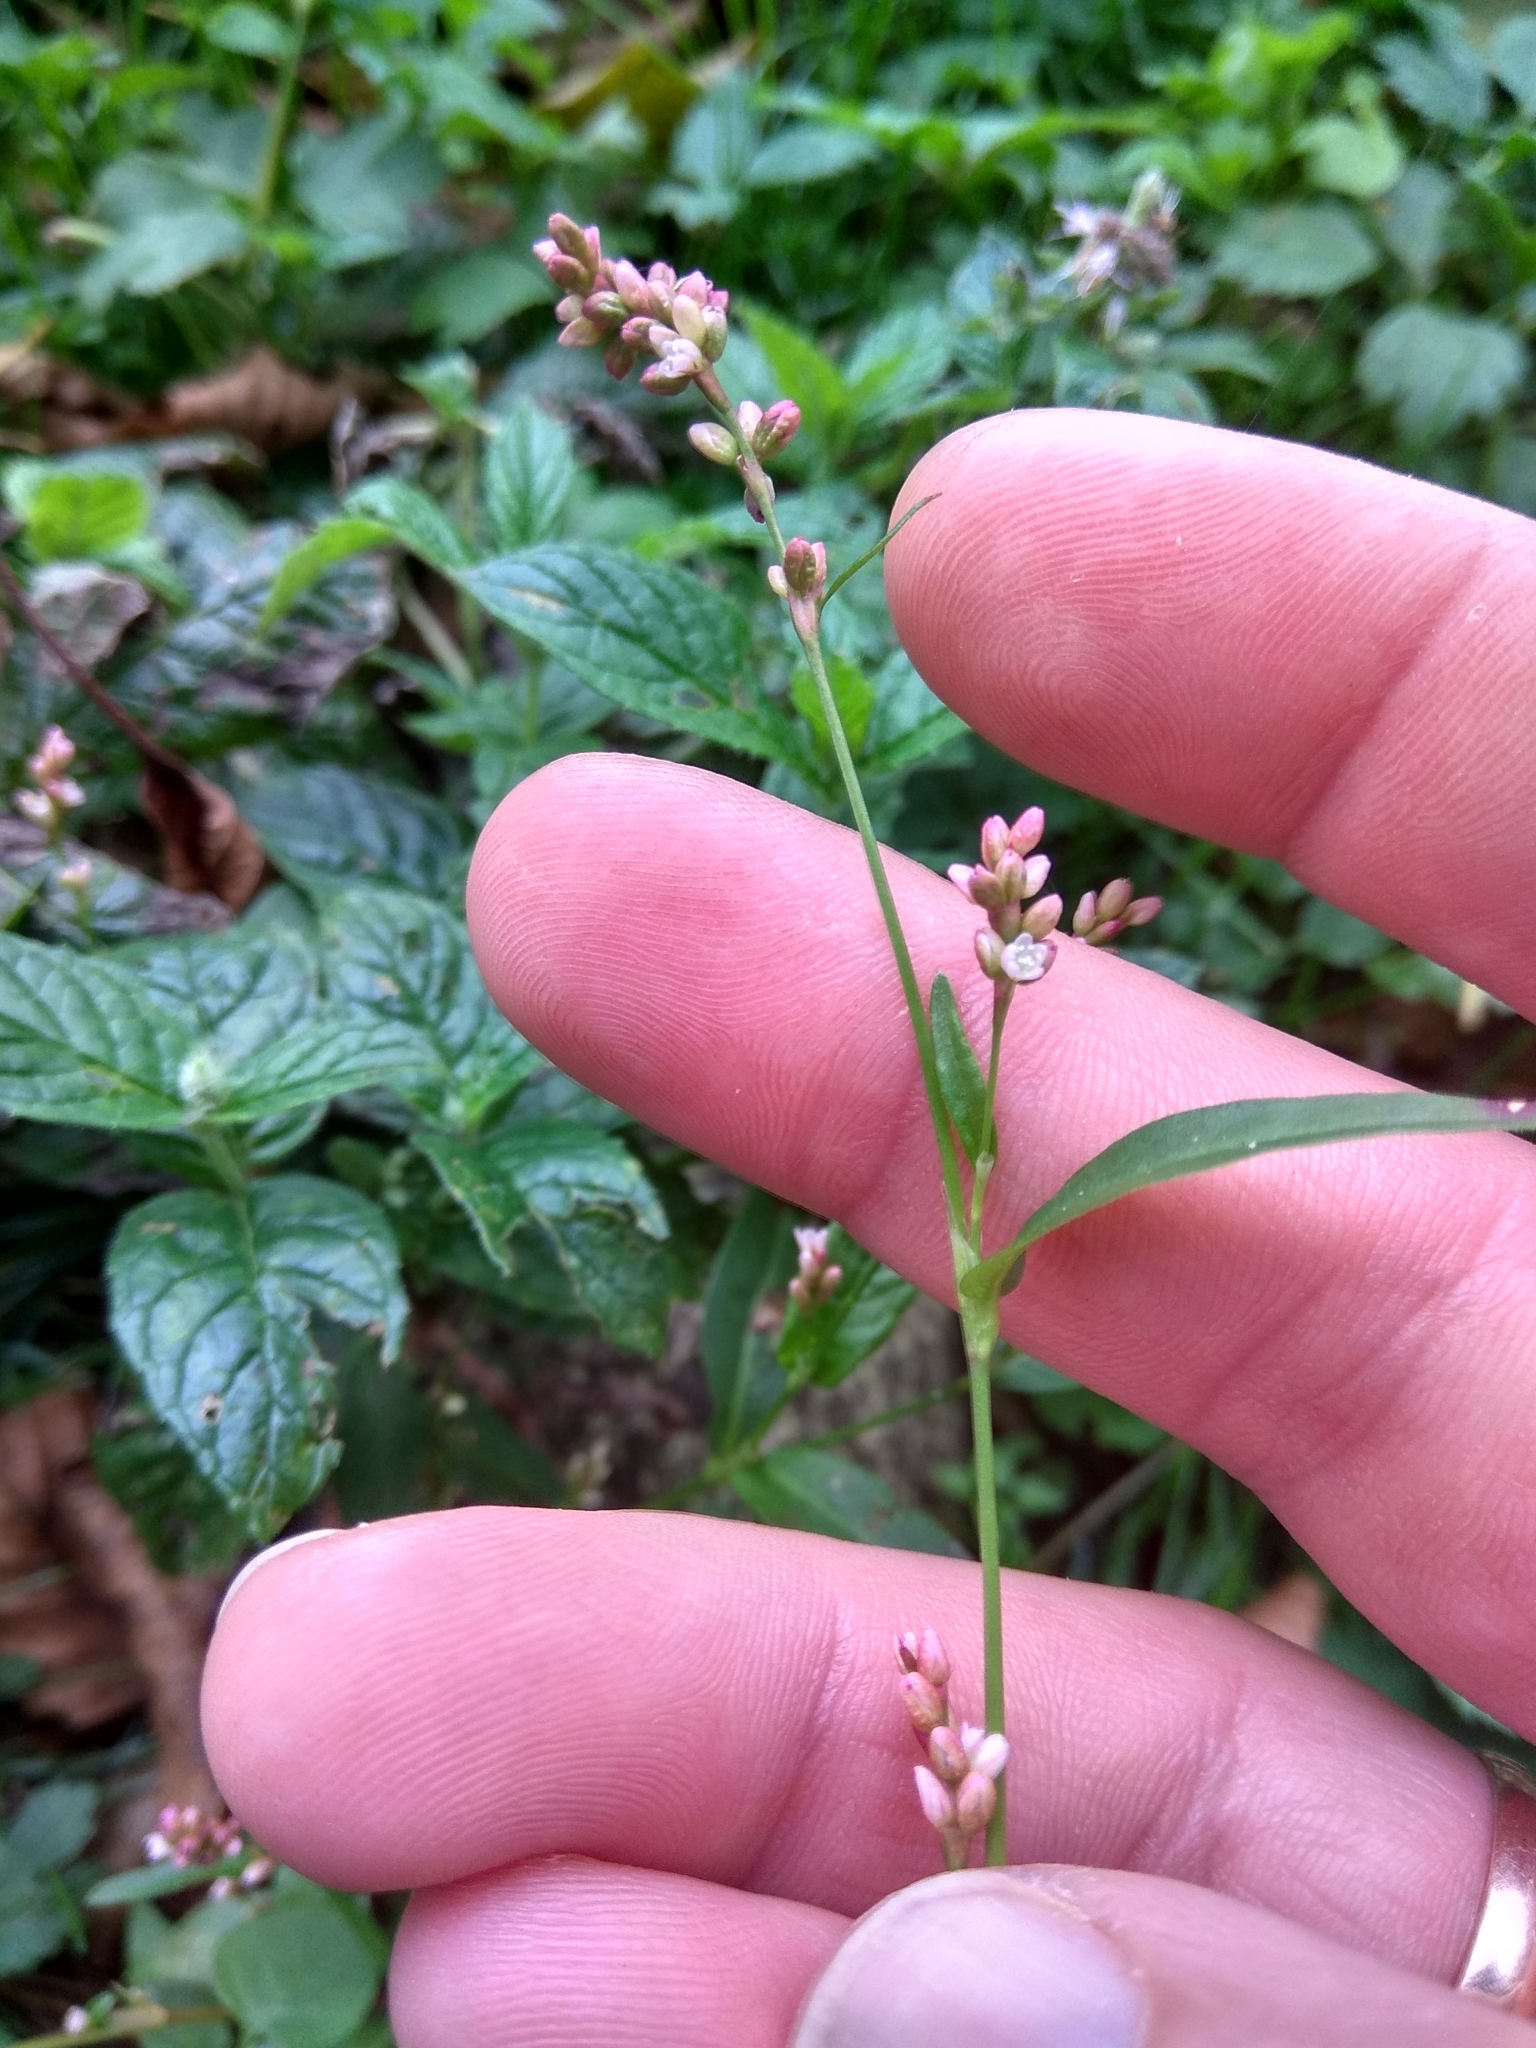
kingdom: Plantae
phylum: Tracheophyta
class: Magnoliopsida
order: Caryophyllales
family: Polygonaceae
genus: Persicaria
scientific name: Persicaria maculosa
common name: Redshank
